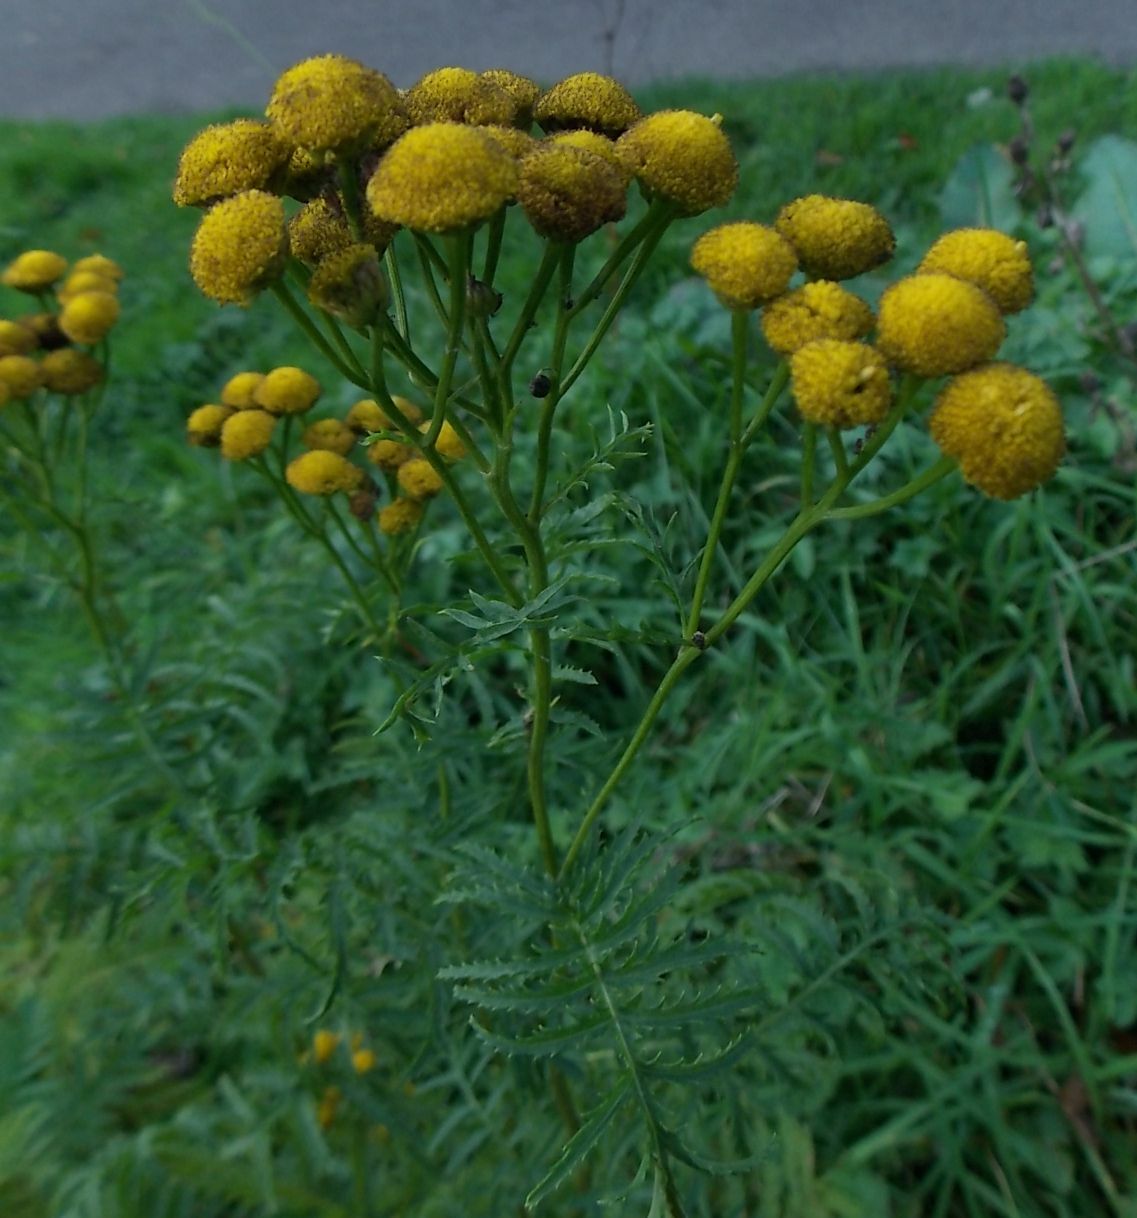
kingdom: Plantae
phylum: Tracheophyta
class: Magnoliopsida
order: Asterales
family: Asteraceae
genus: Tanacetum
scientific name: Tanacetum vulgare
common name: Common tansy
